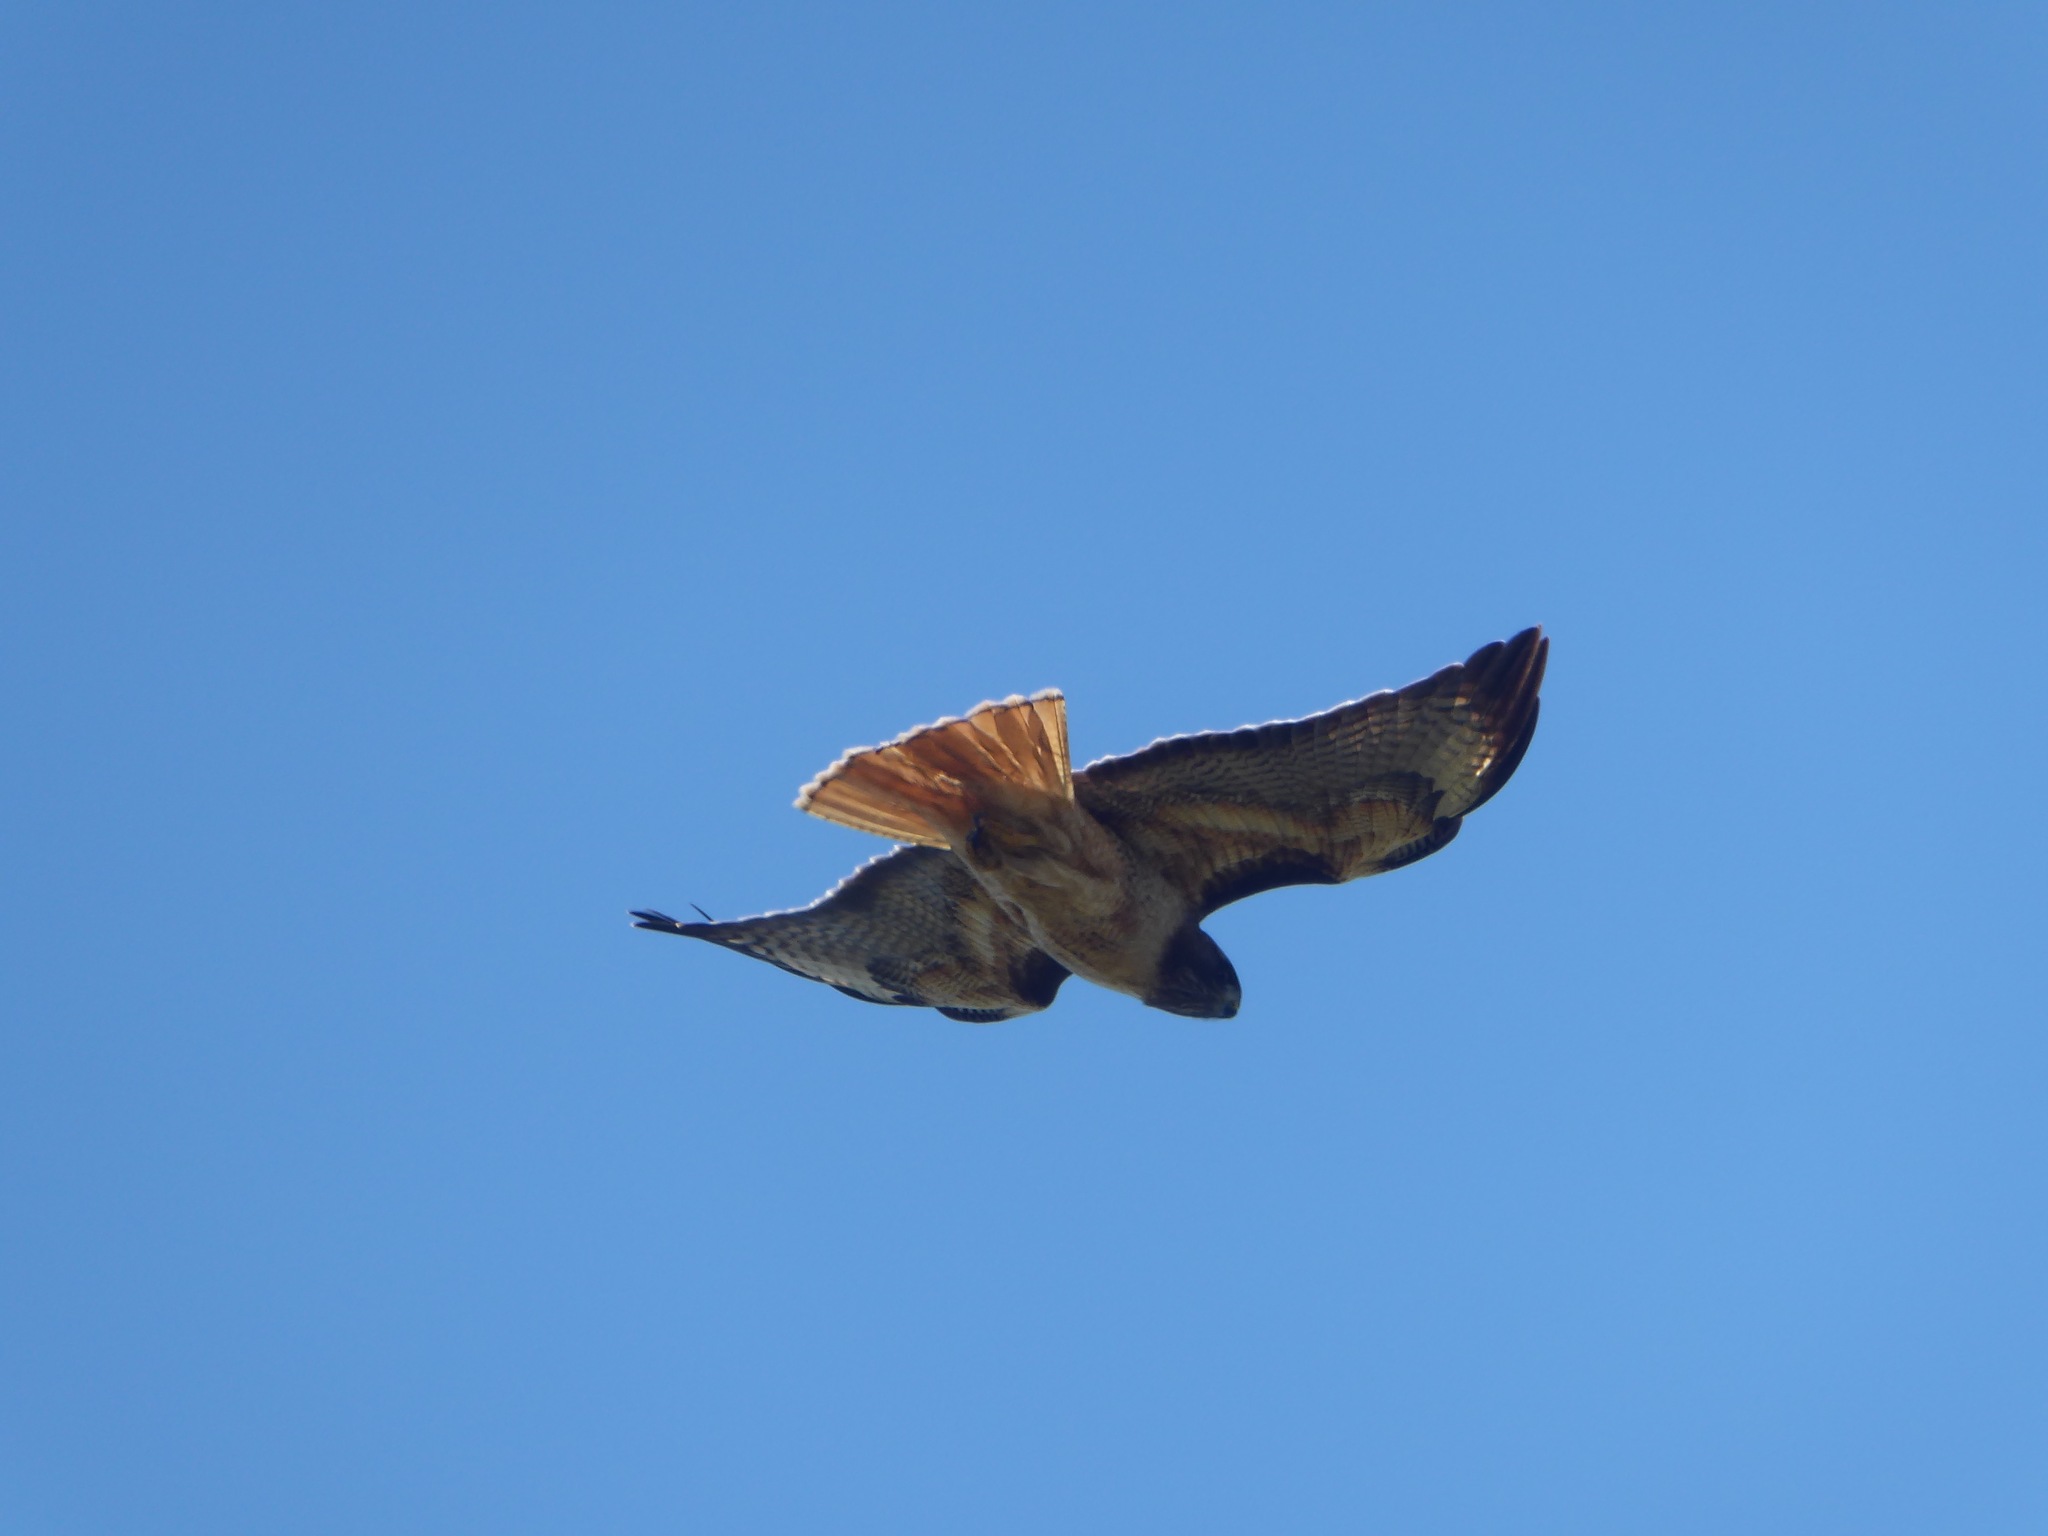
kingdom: Animalia
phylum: Chordata
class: Aves
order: Accipitriformes
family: Accipitridae
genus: Buteo
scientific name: Buteo jamaicensis
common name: Red-tailed hawk
